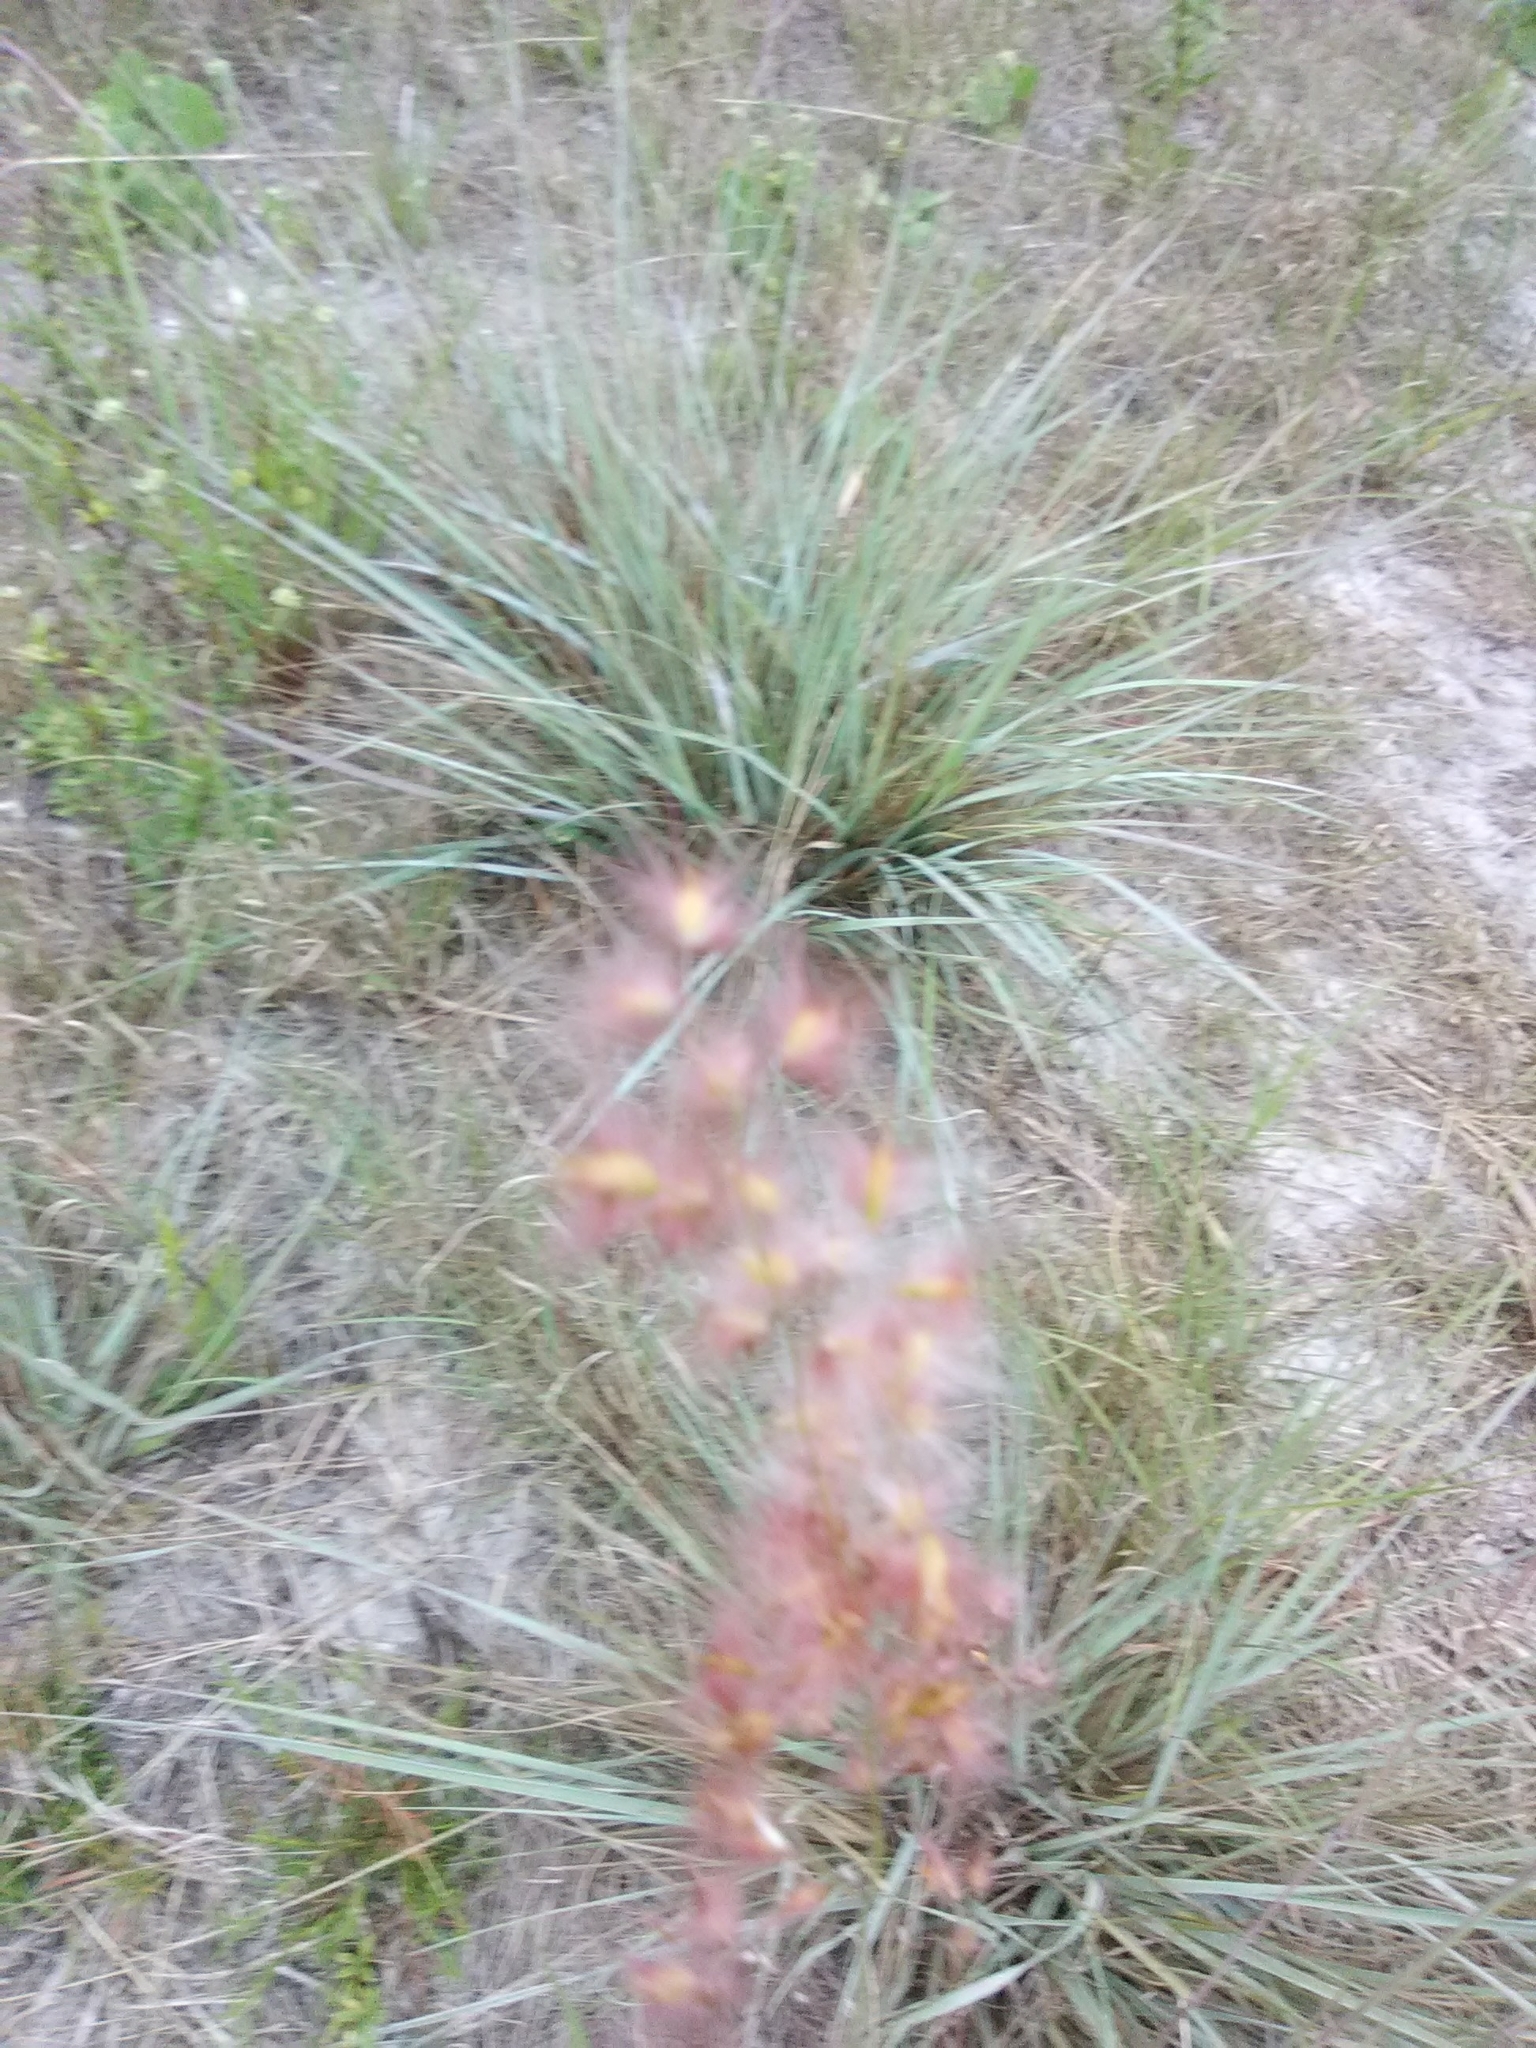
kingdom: Plantae
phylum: Tracheophyta
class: Liliopsida
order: Poales
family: Poaceae
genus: Melinis
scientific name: Melinis repens
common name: Rose natal grass
